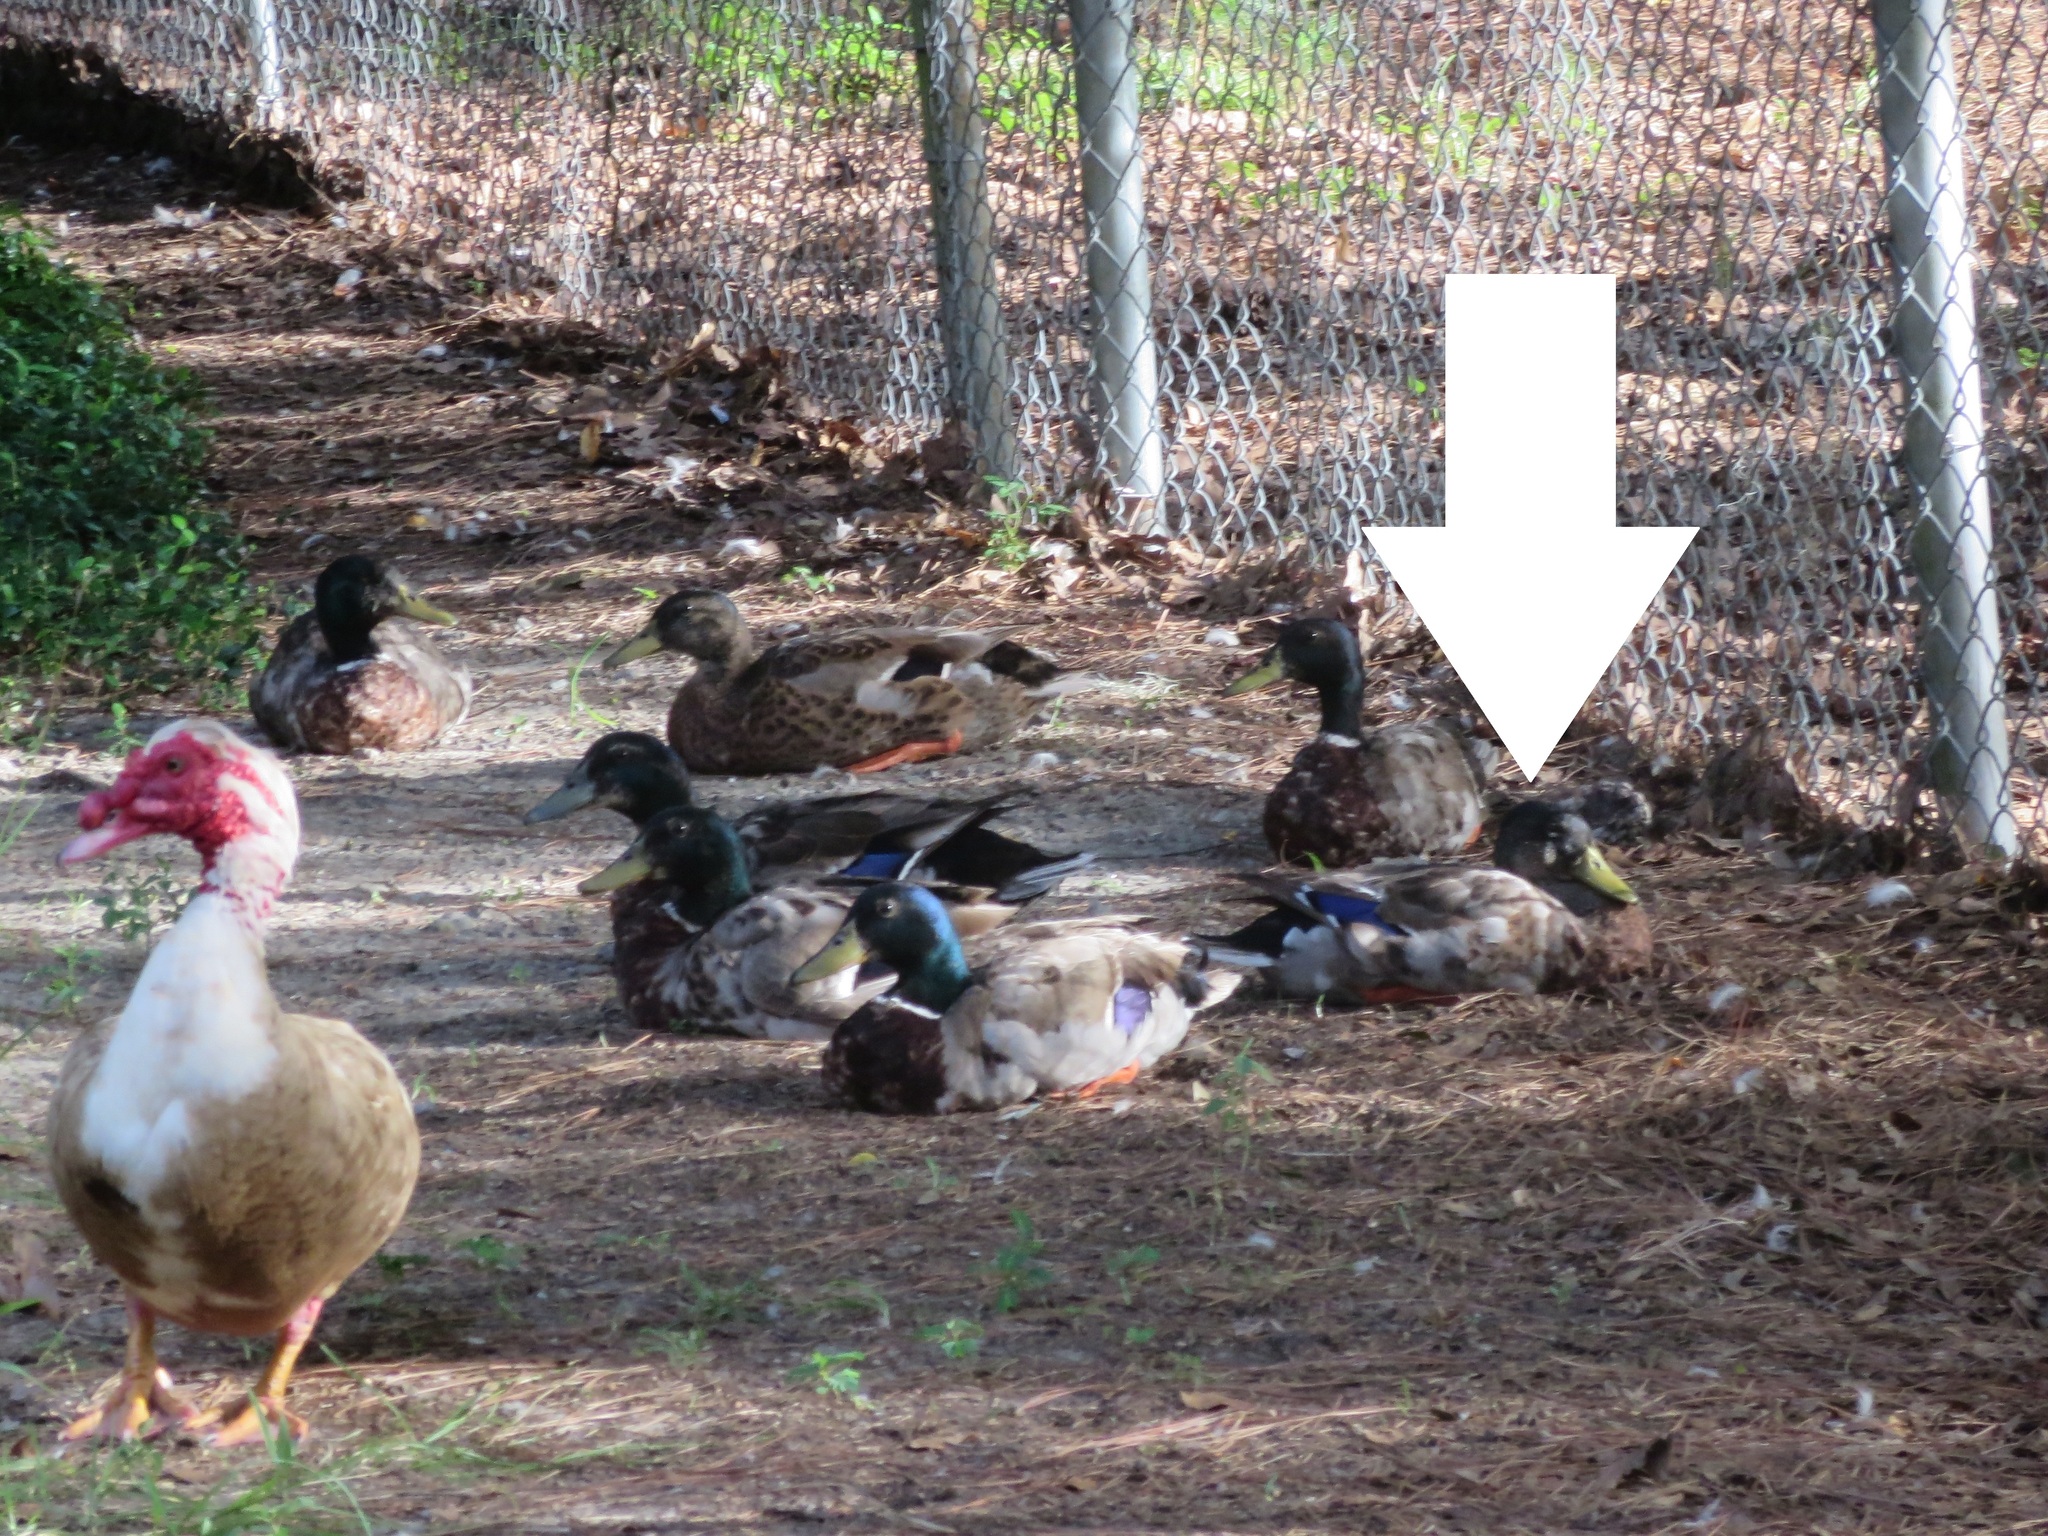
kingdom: Animalia
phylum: Chordata
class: Aves
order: Anseriformes
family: Anatidae
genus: Anas
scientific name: Anas platyrhynchos
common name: Mallard
